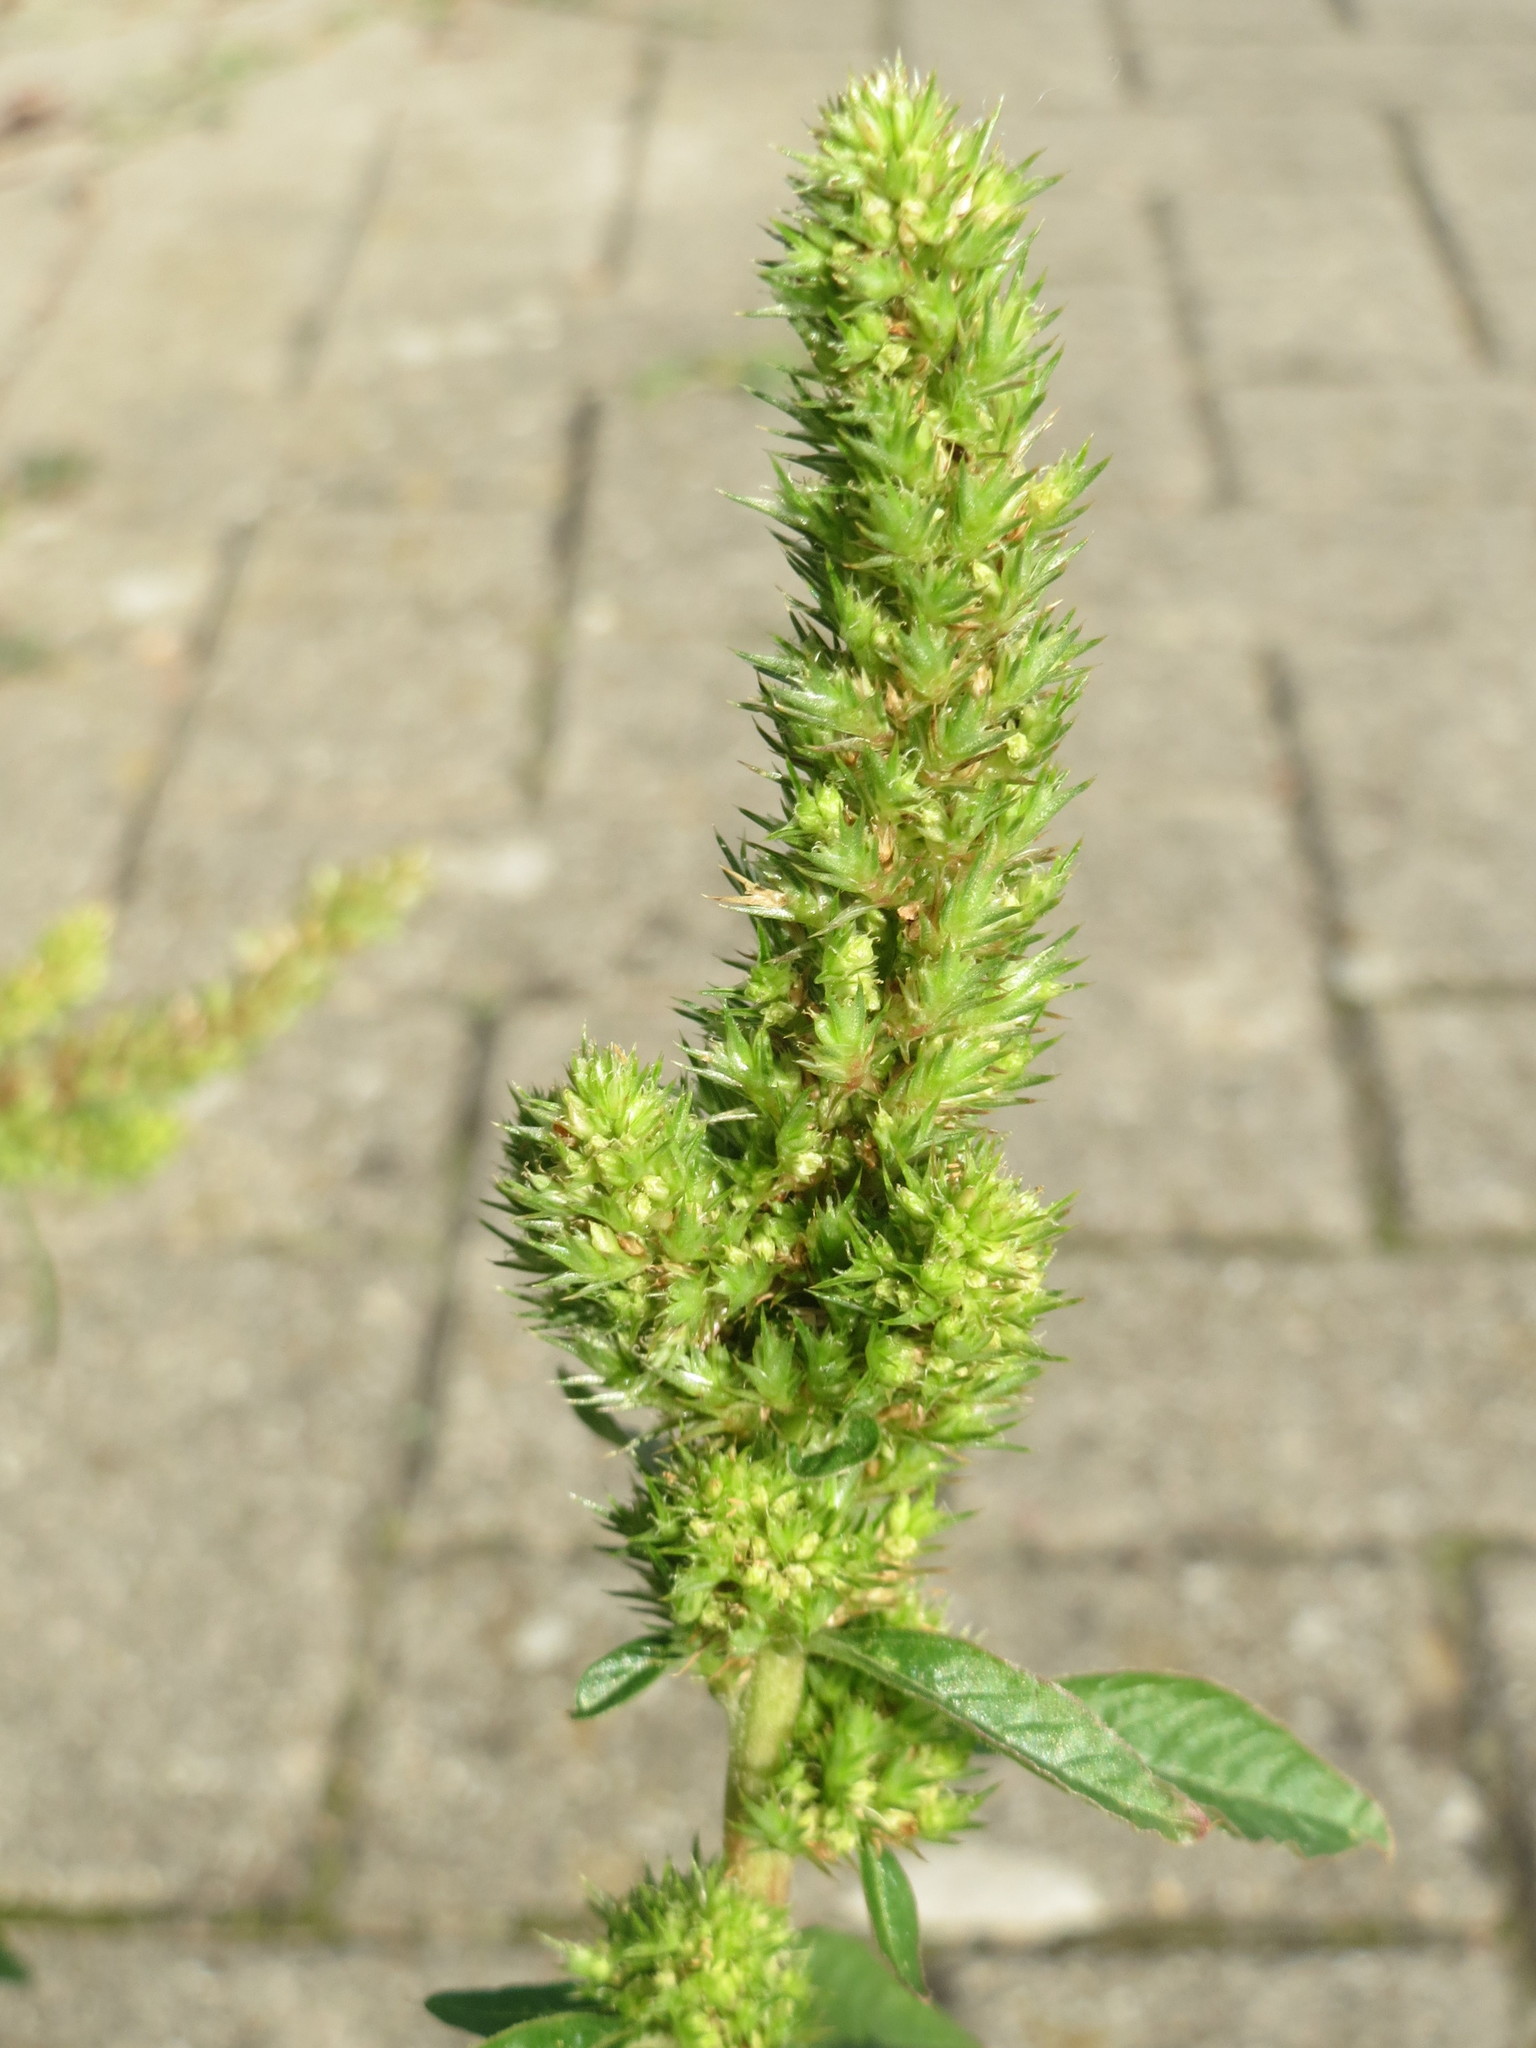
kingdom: Plantae
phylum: Tracheophyta
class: Magnoliopsida
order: Caryophyllales
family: Amaranthaceae
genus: Amaranthus
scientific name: Amaranthus retroflexus
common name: Redroot amaranth
